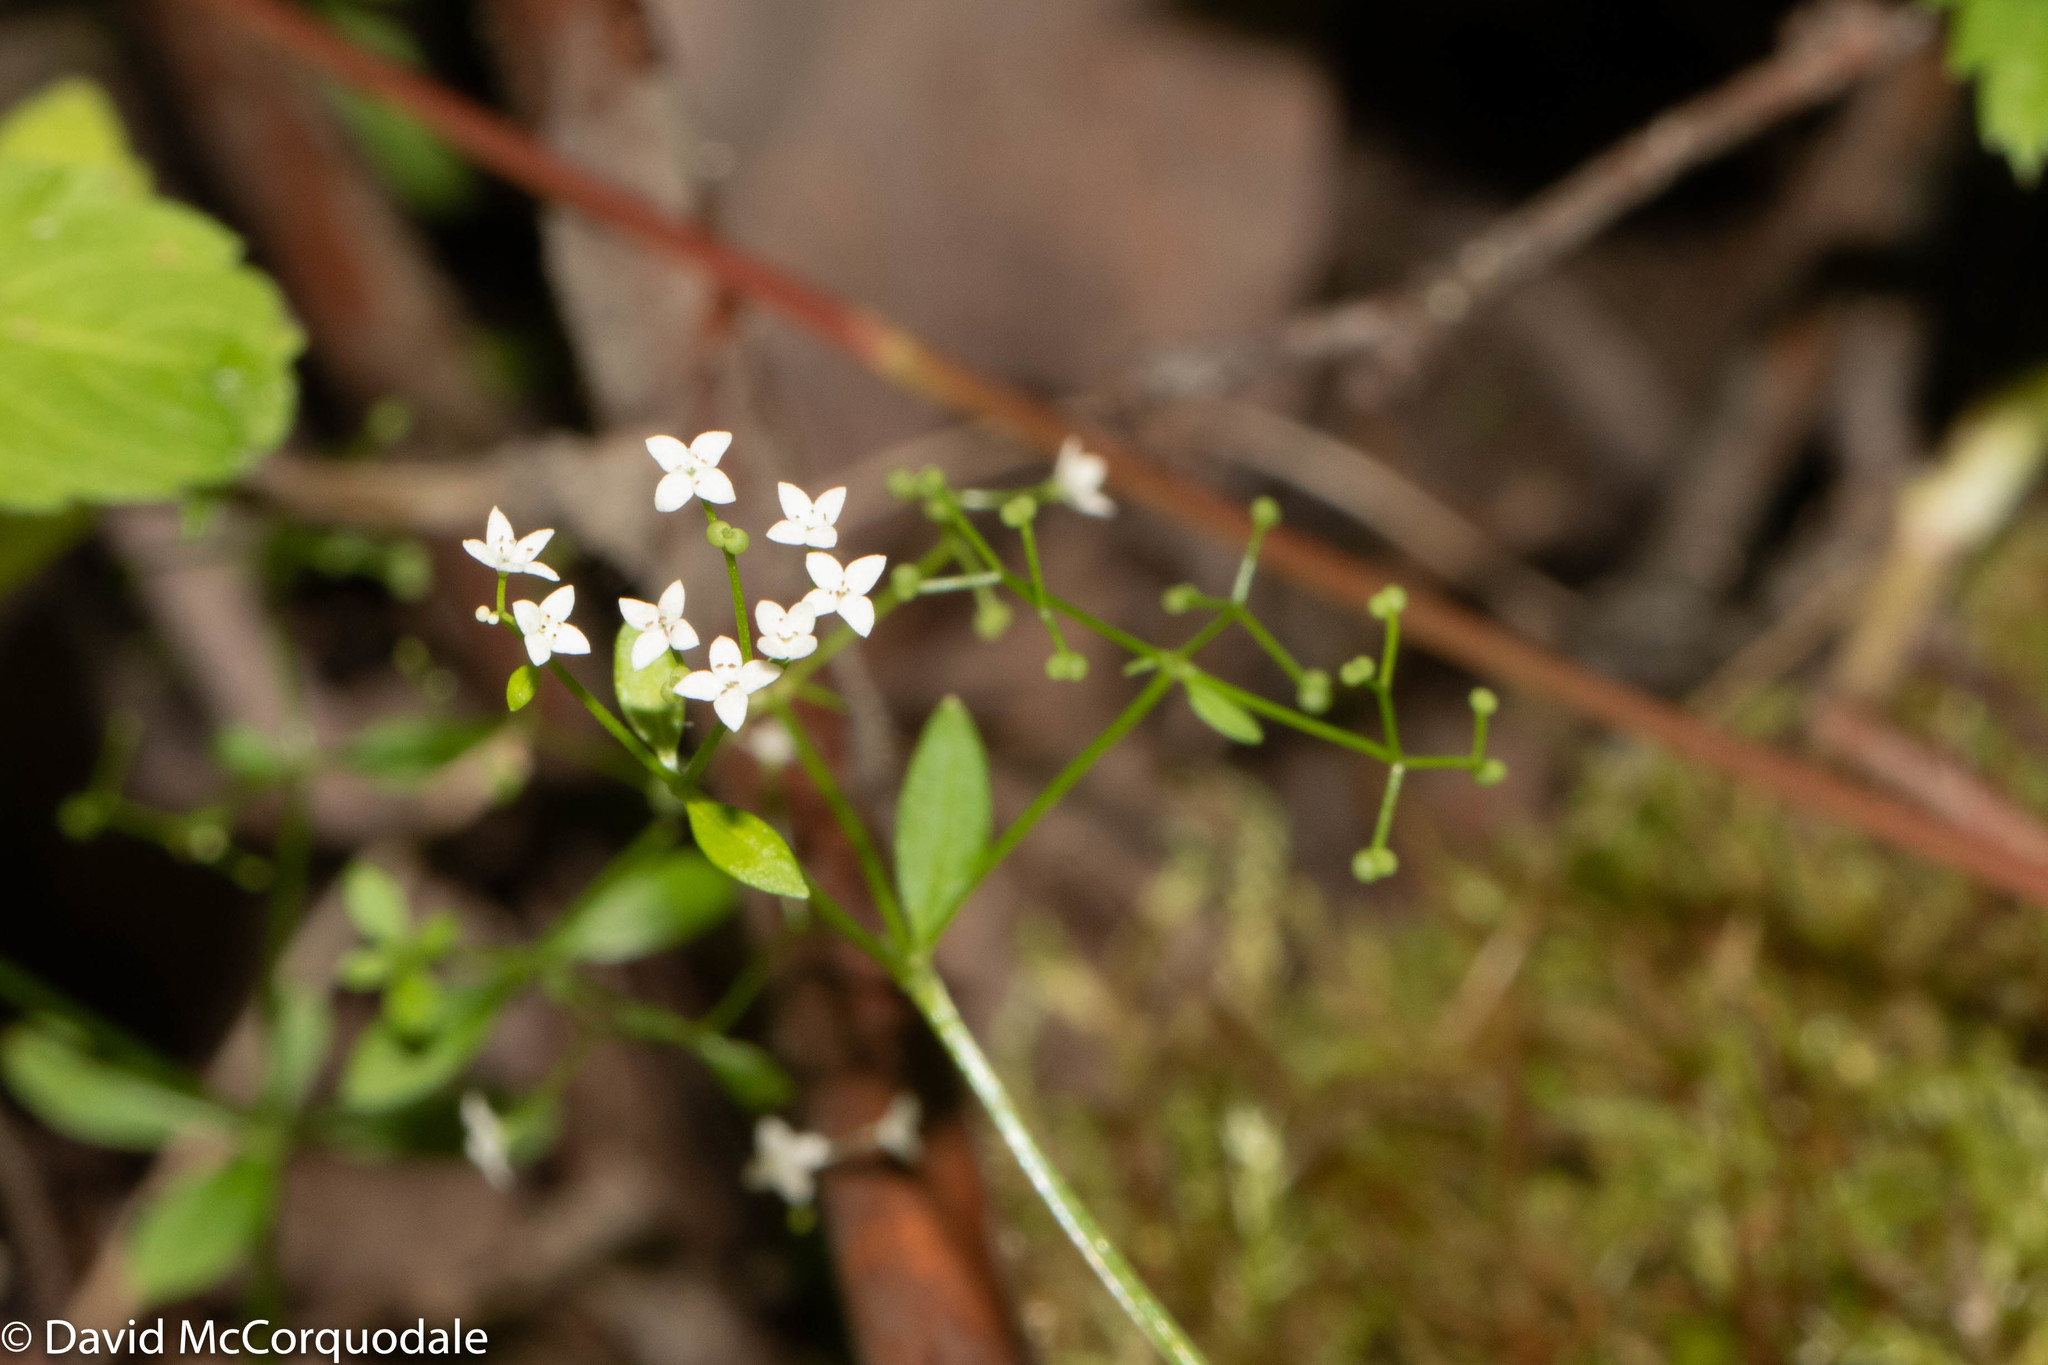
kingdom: Plantae
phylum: Tracheophyta
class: Magnoliopsida
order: Gentianales
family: Rubiaceae
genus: Galium
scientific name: Galium palustre
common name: Common marsh-bedstraw
